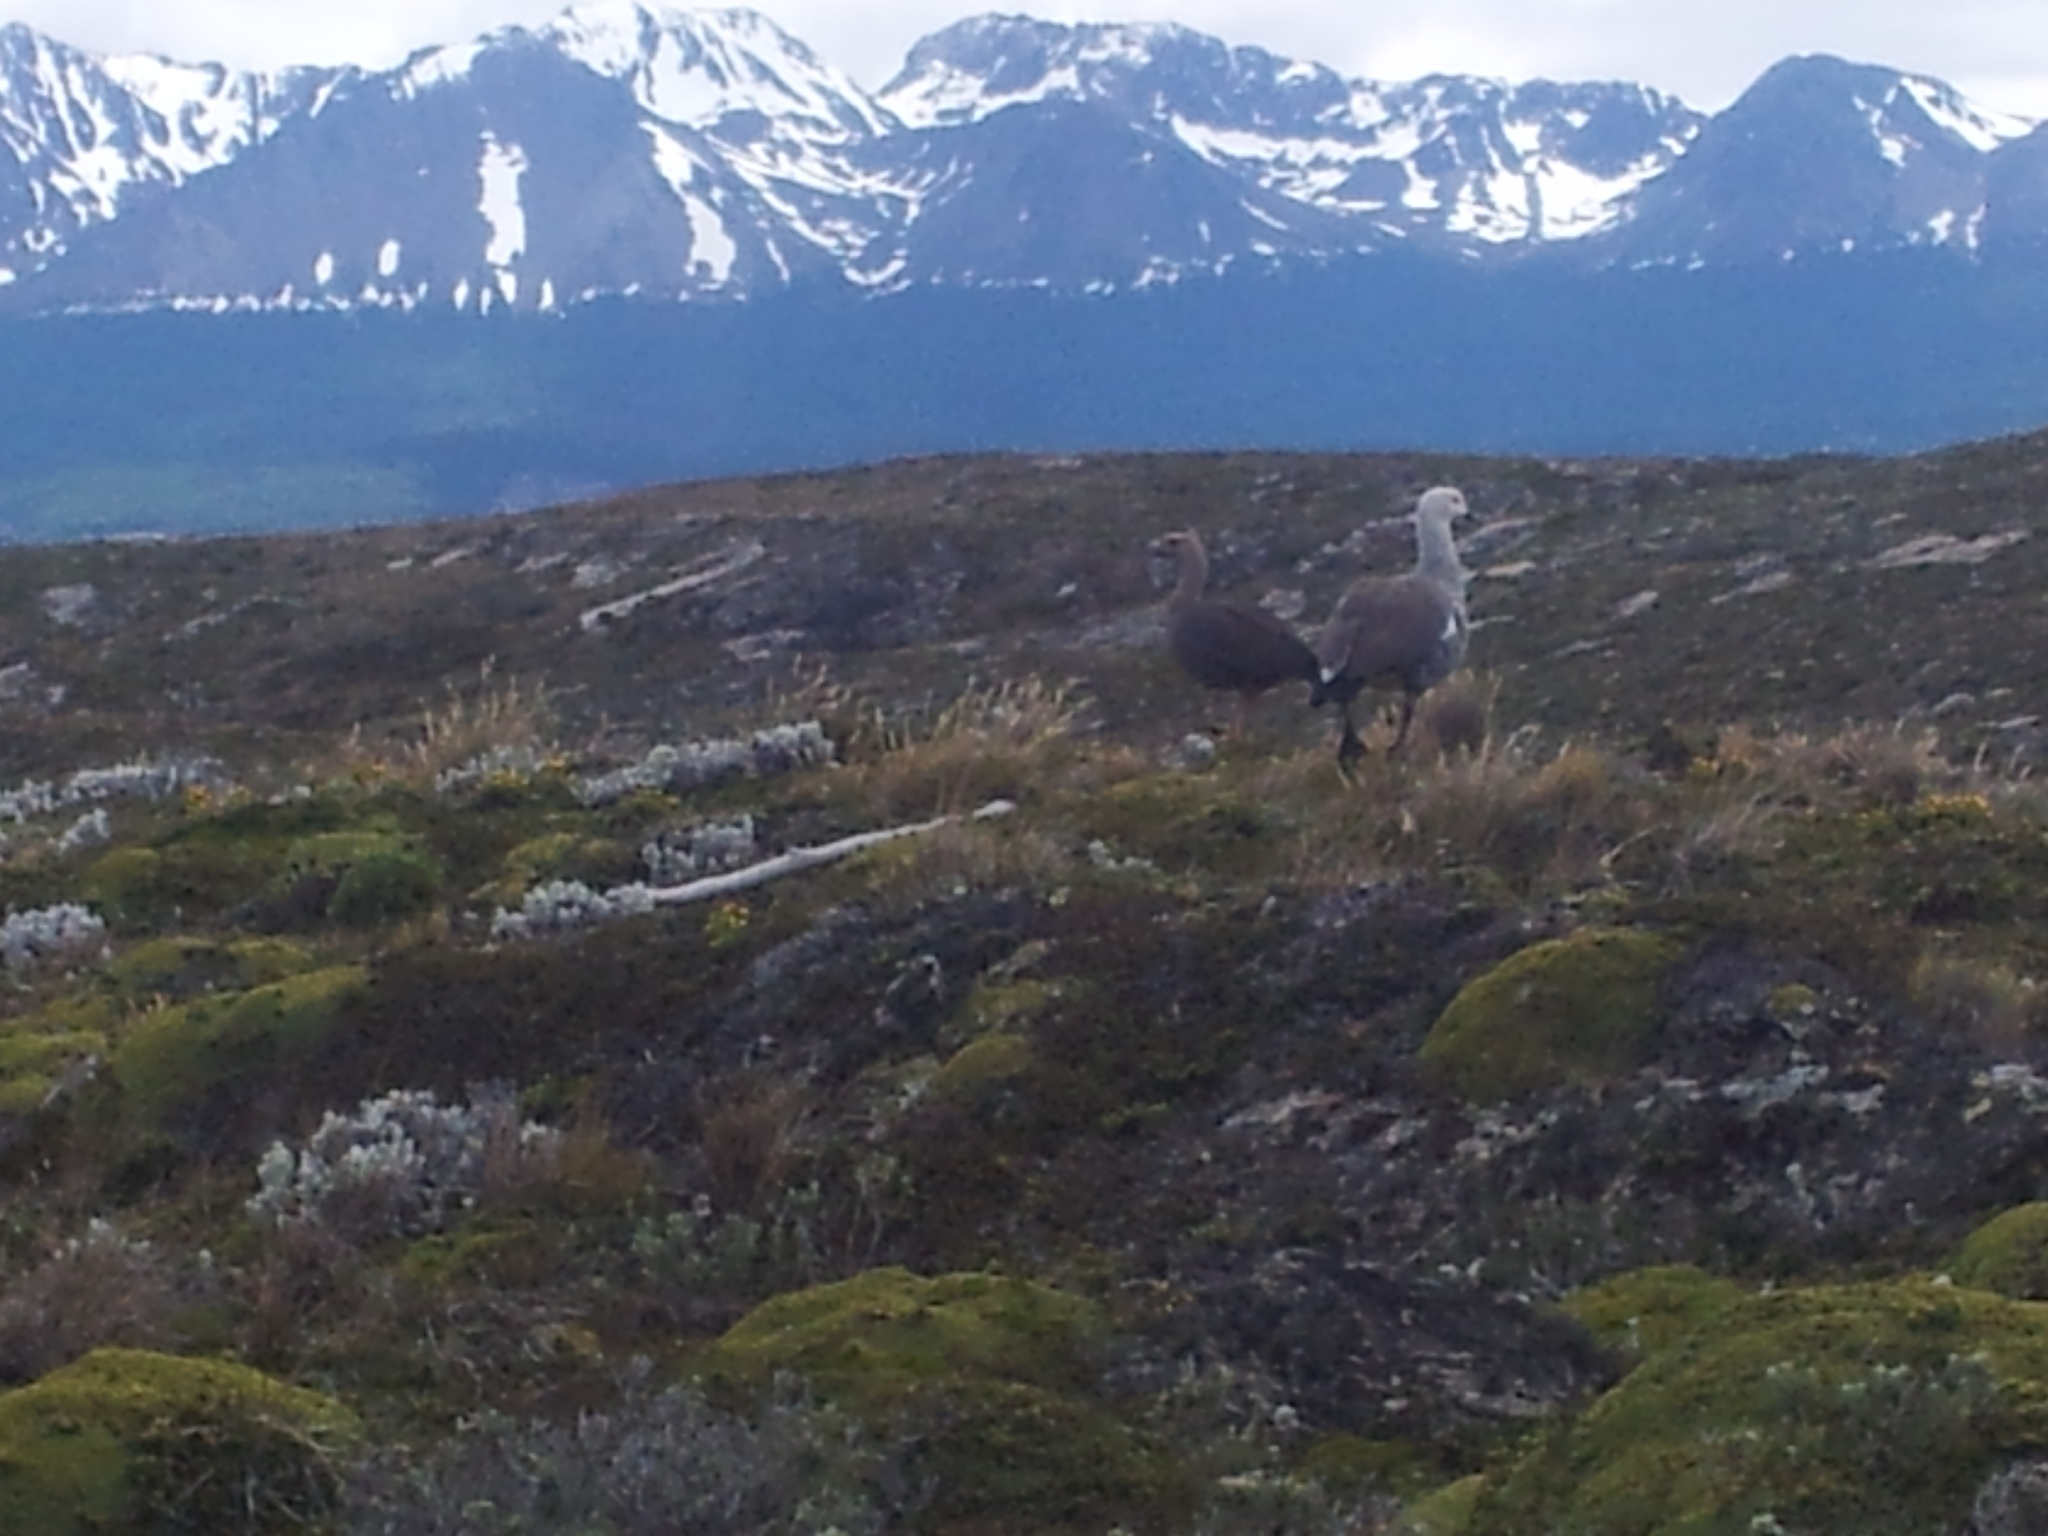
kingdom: Animalia
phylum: Chordata
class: Aves
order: Anseriformes
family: Anatidae
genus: Chloephaga
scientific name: Chloephaga picta
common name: Upland goose
